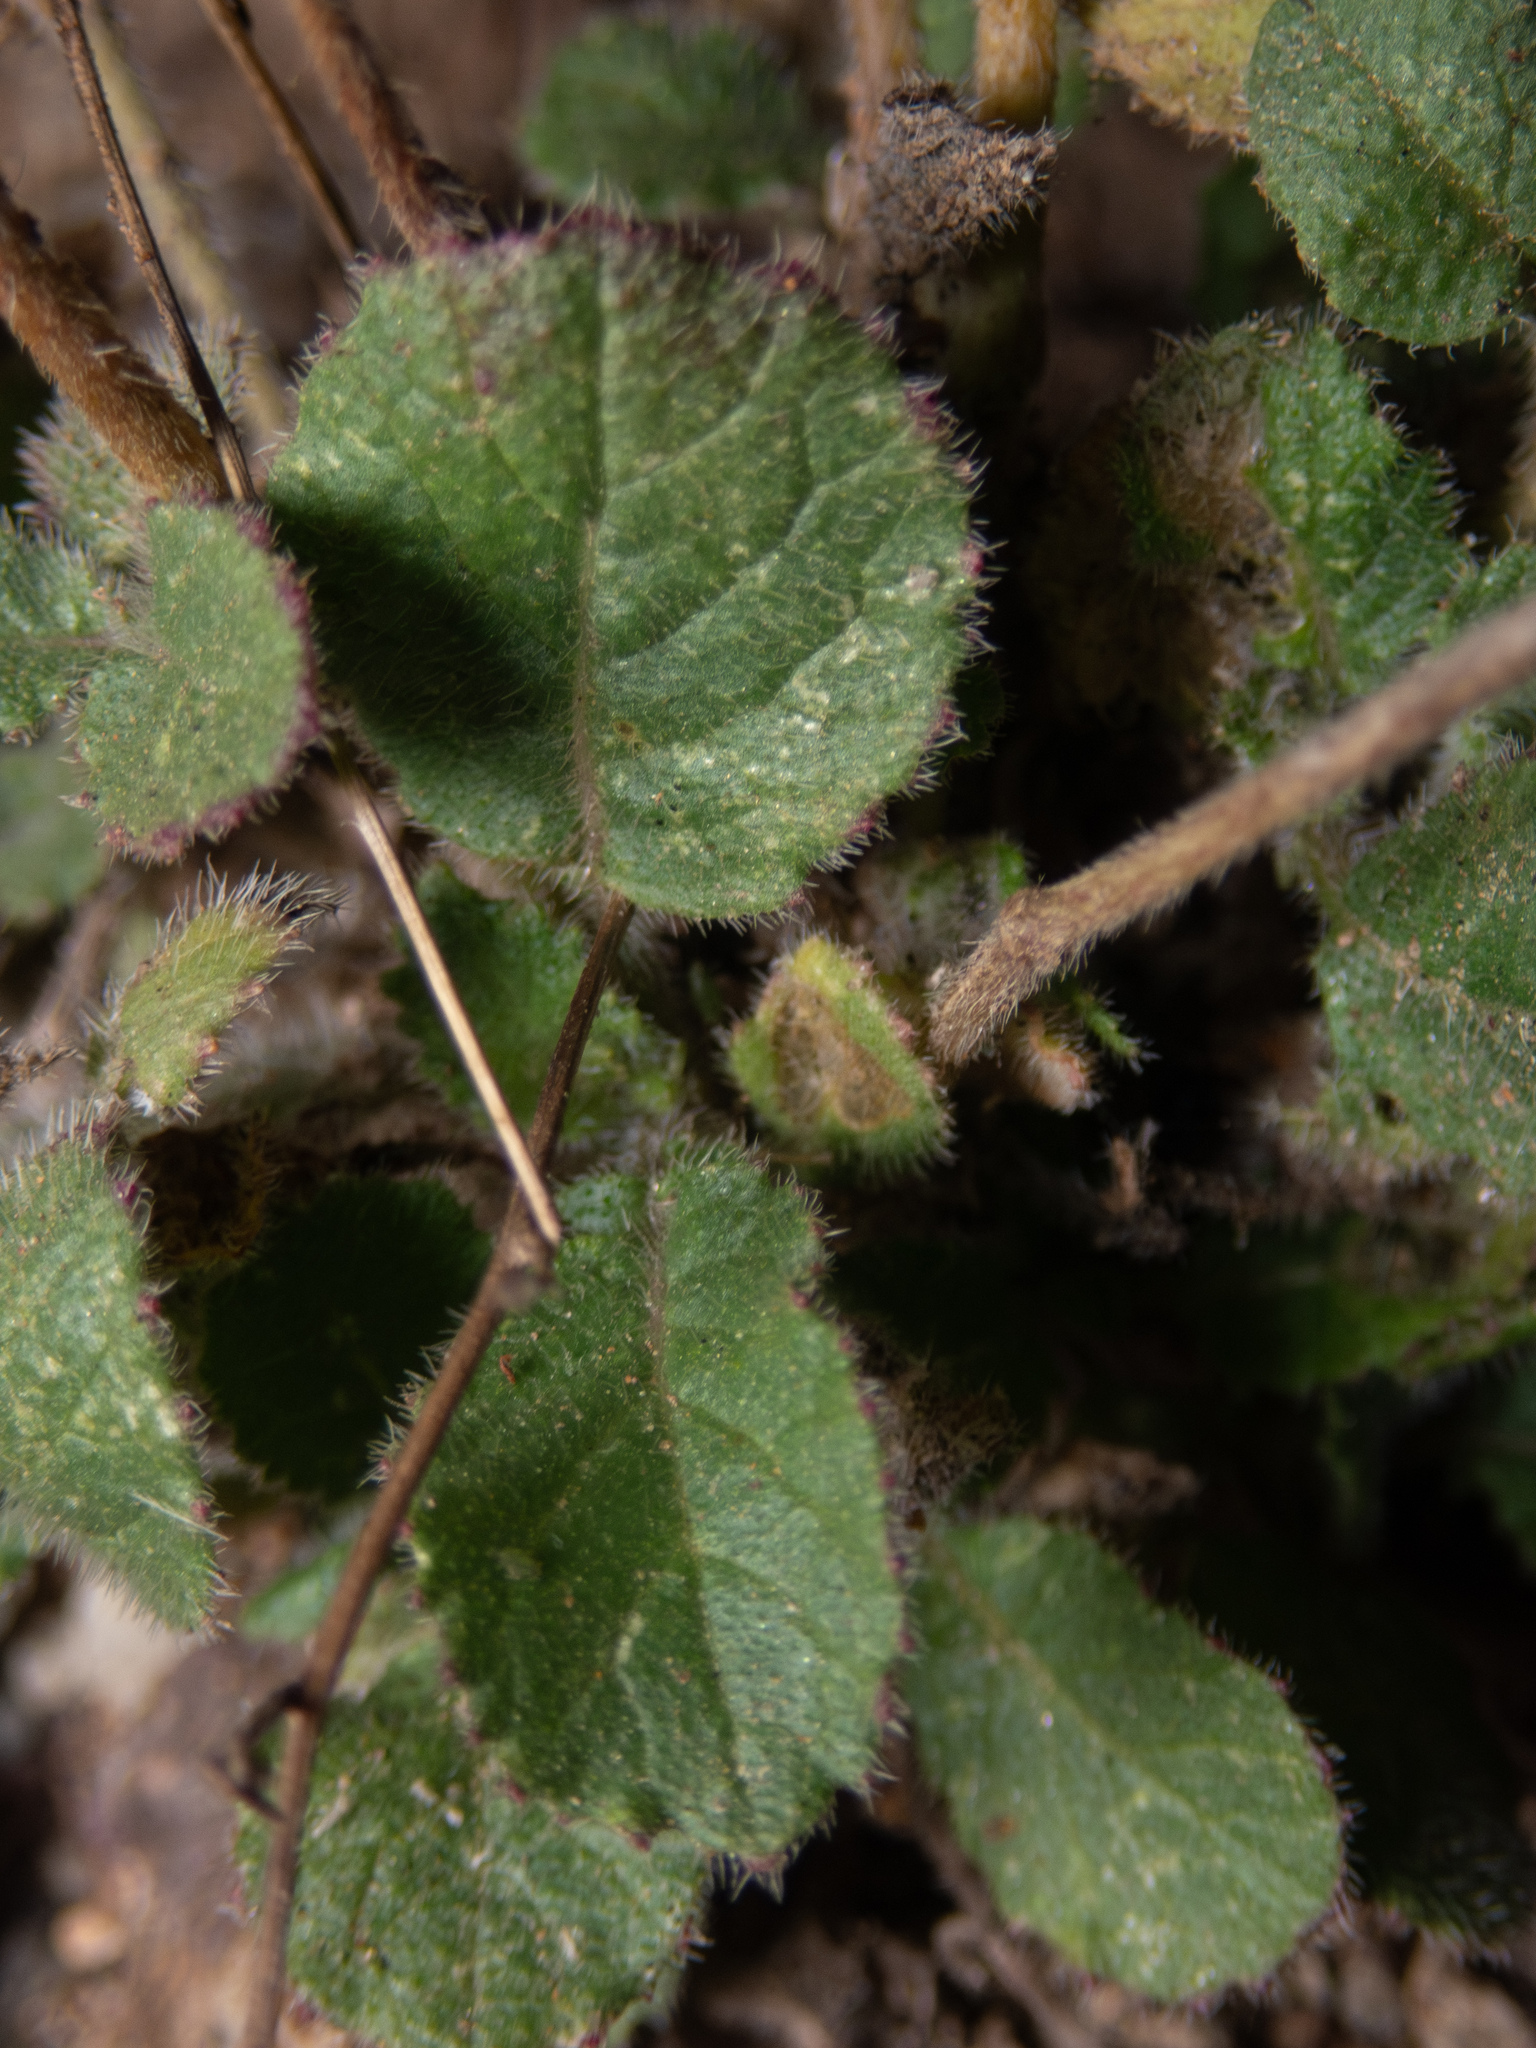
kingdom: Plantae
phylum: Tracheophyta
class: Magnoliopsida
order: Brassicales
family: Brassicaceae
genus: Hirschfeldia
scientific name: Hirschfeldia incana
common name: Hoary mustard
